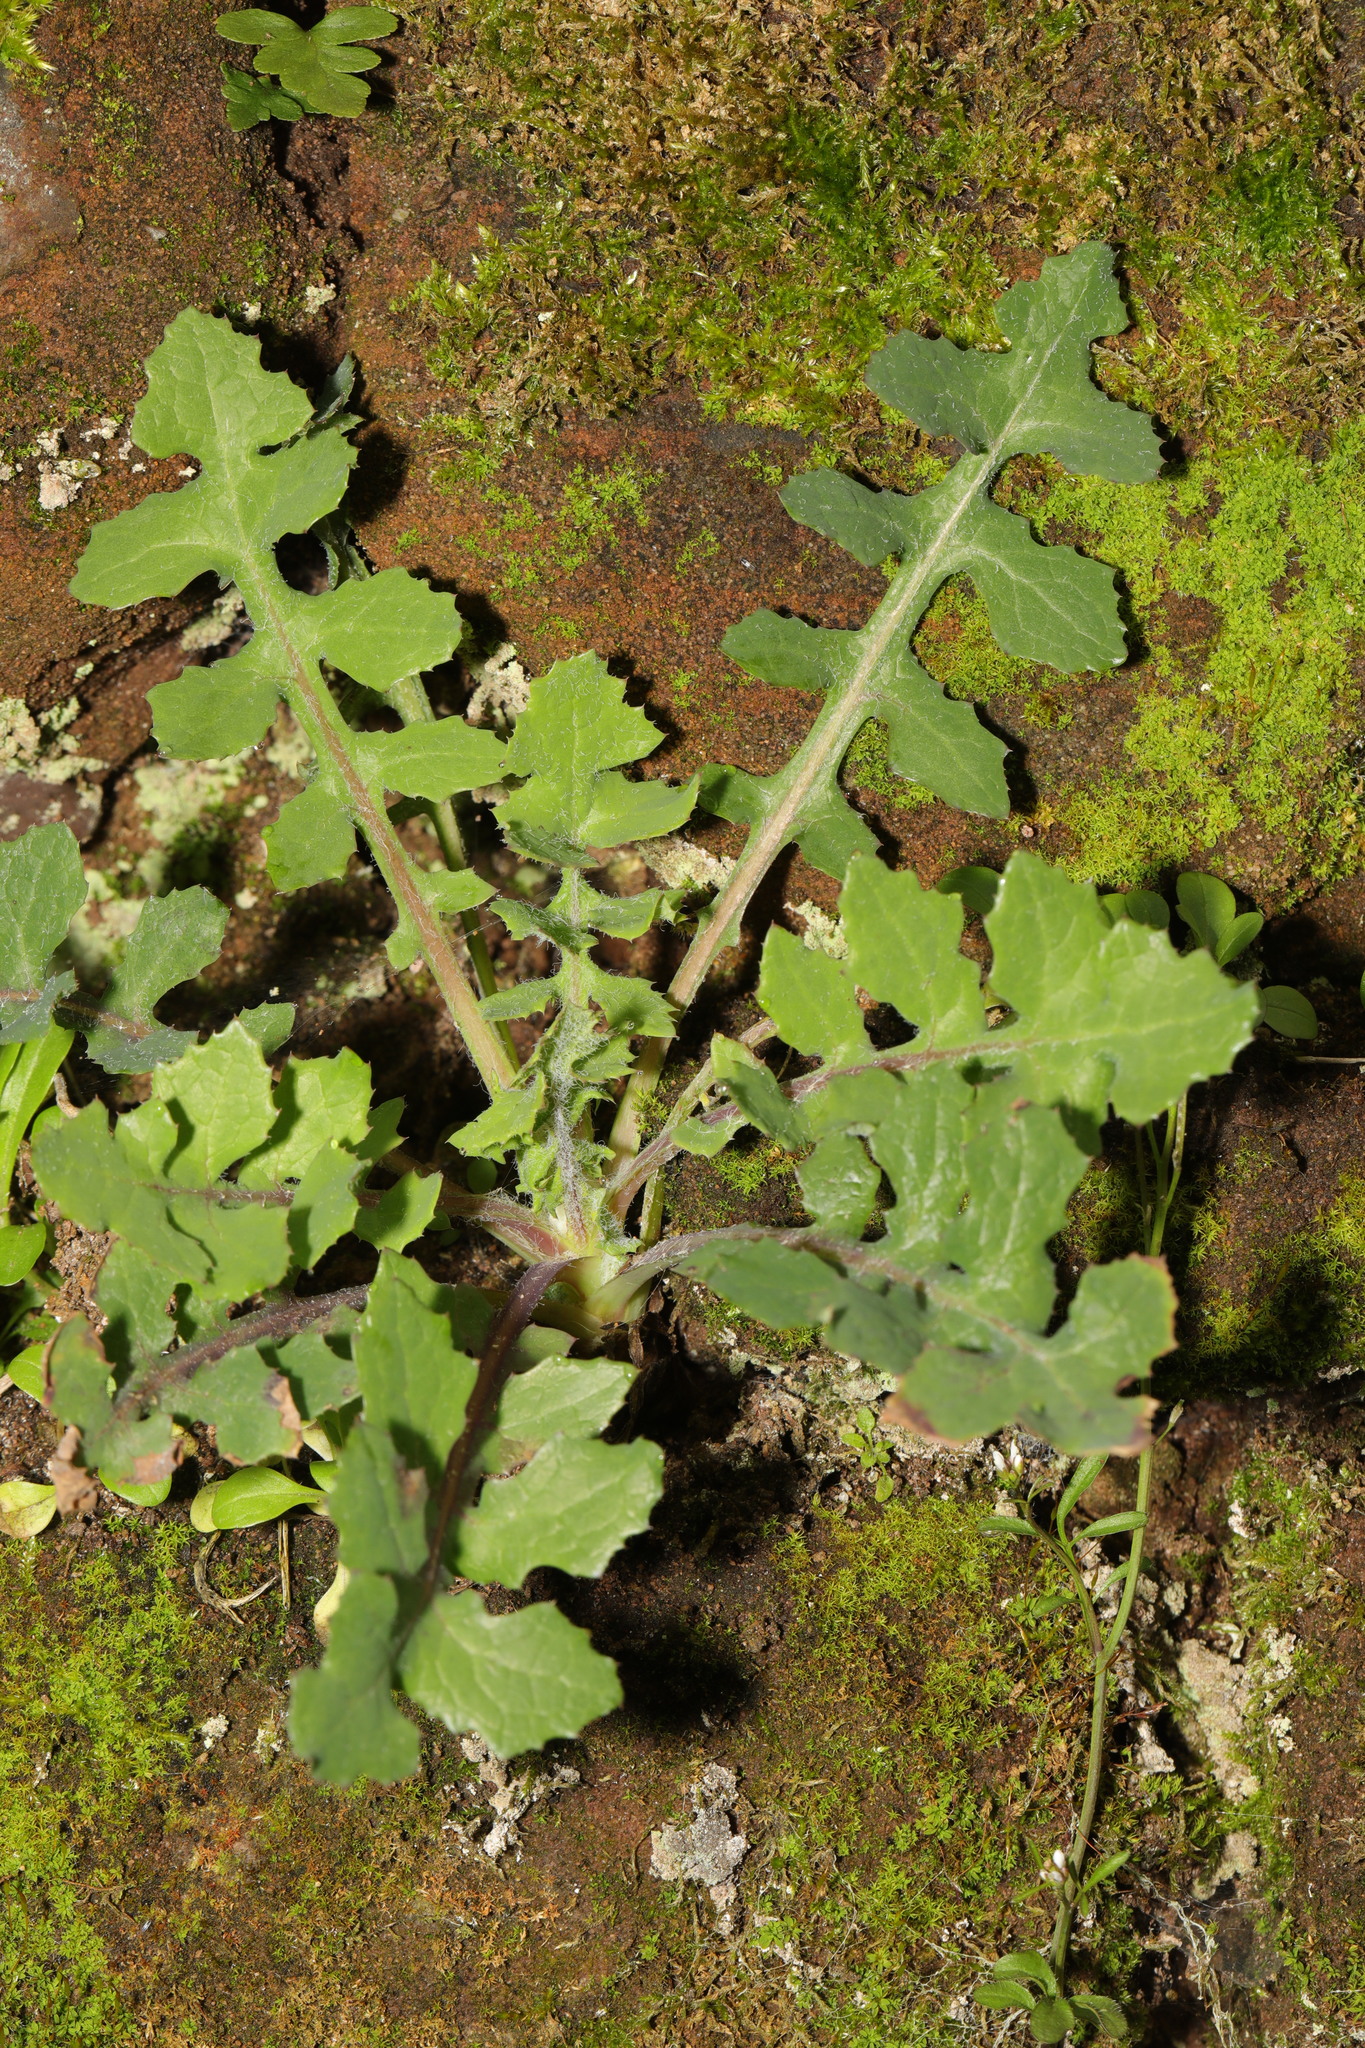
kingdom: Plantae
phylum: Tracheophyta
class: Magnoliopsida
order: Asterales
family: Asteraceae
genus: Sonchus
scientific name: Sonchus oleraceus
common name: Common sowthistle
